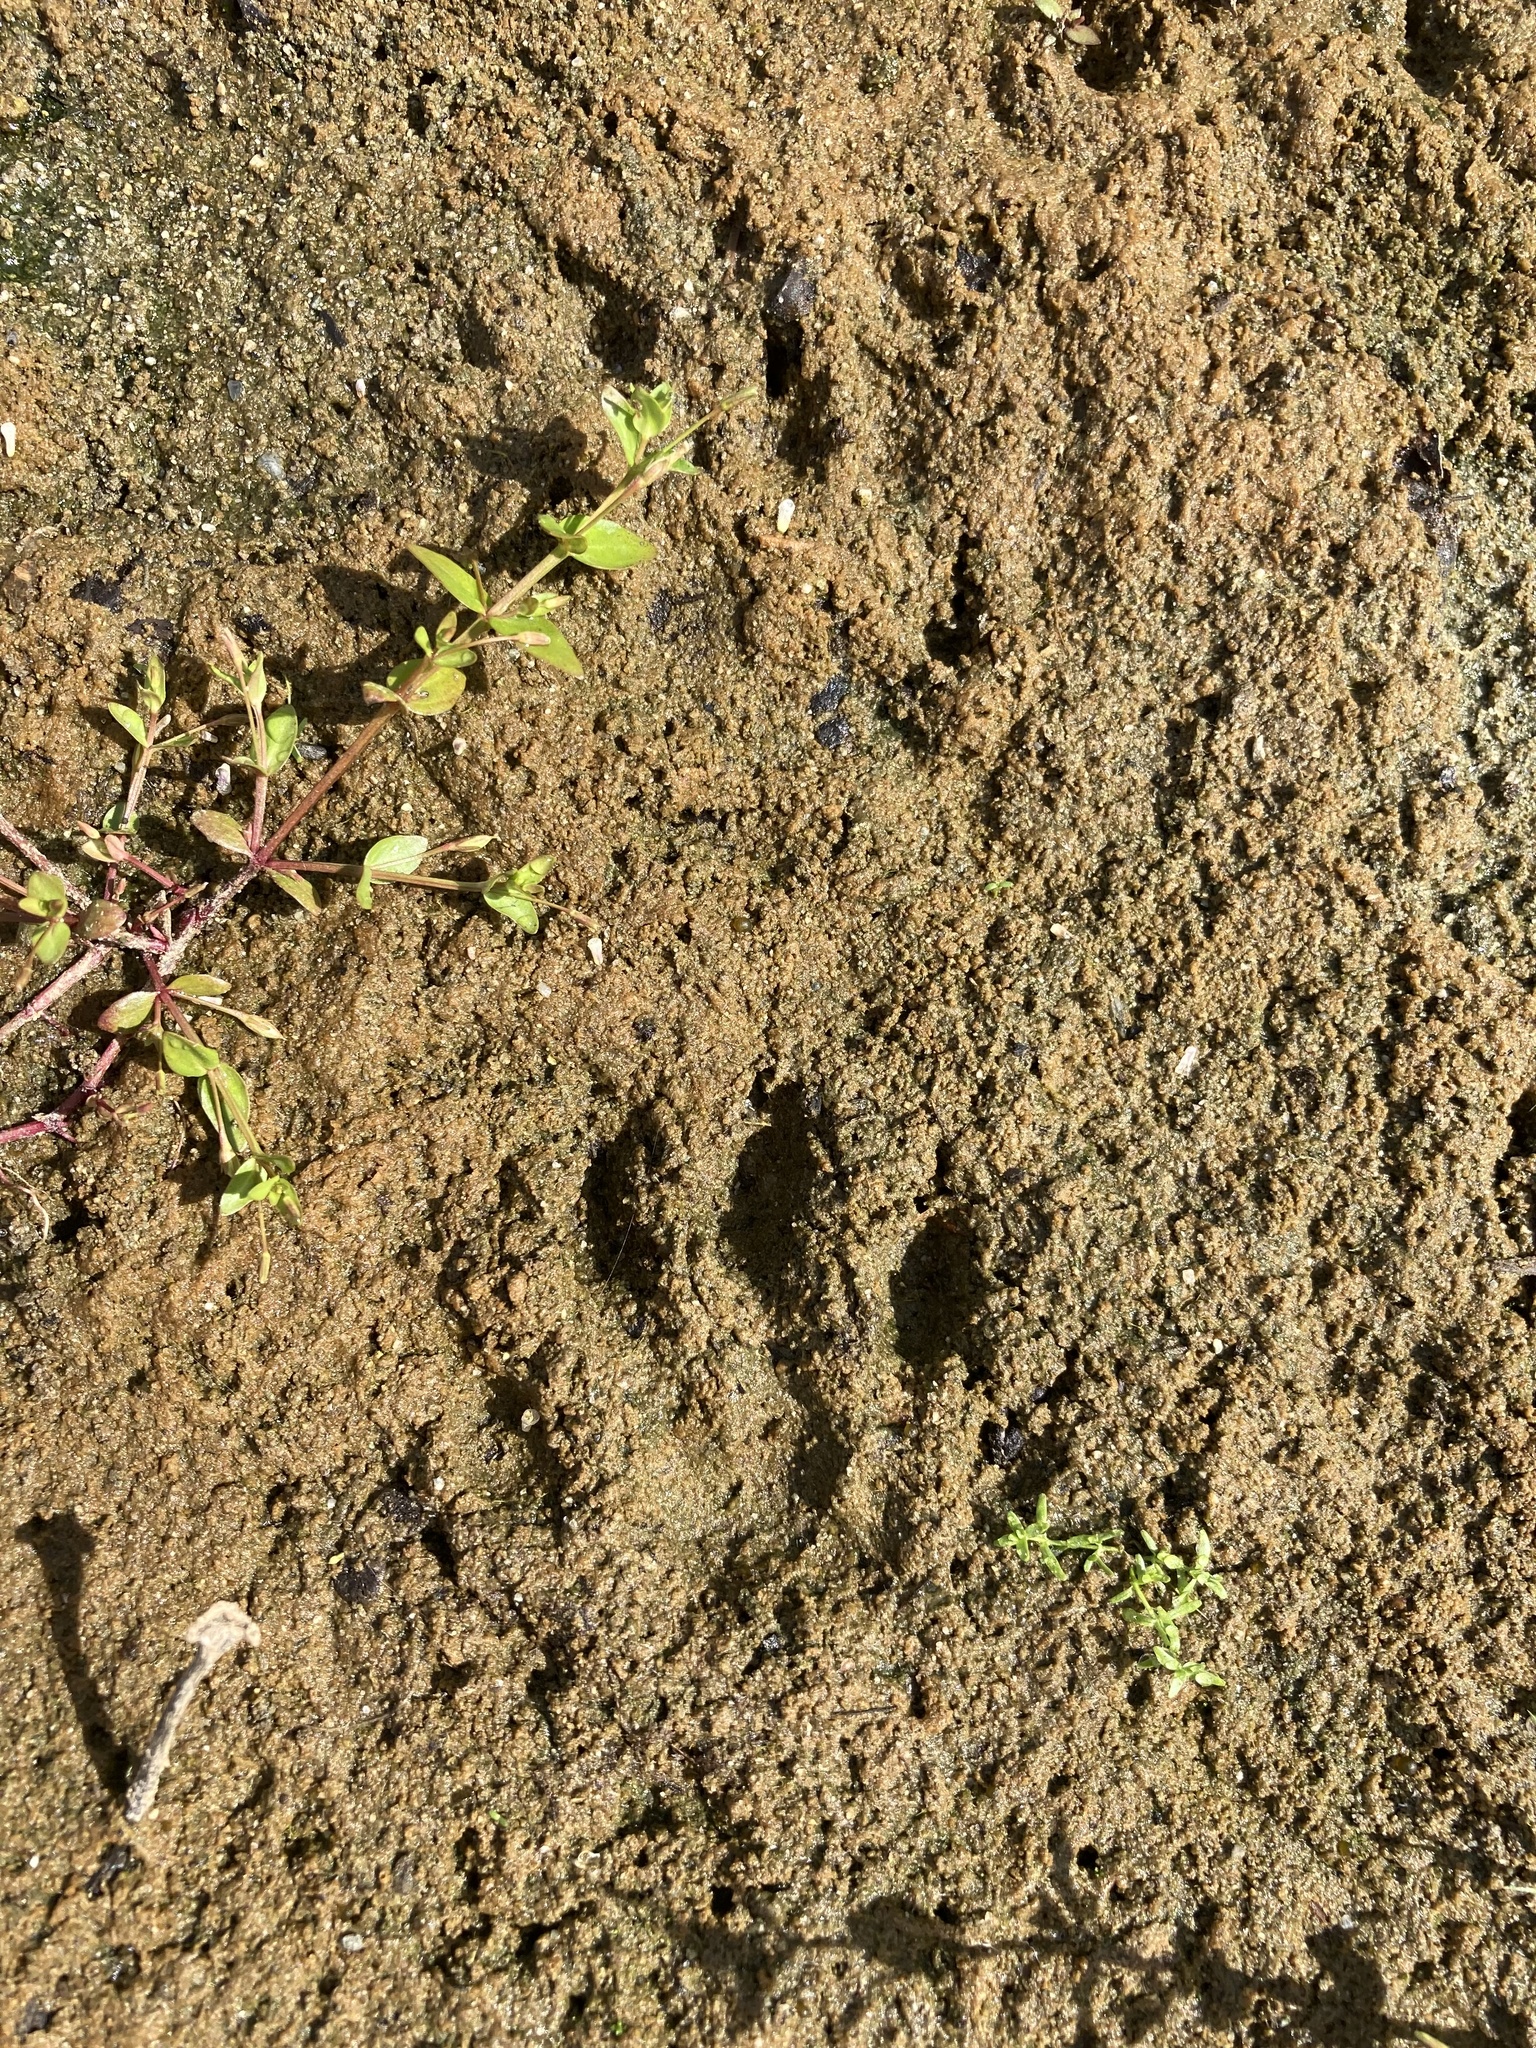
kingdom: Animalia
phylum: Chordata
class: Mammalia
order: Carnivora
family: Procyonidae
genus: Procyon
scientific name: Procyon lotor
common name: Raccoon
